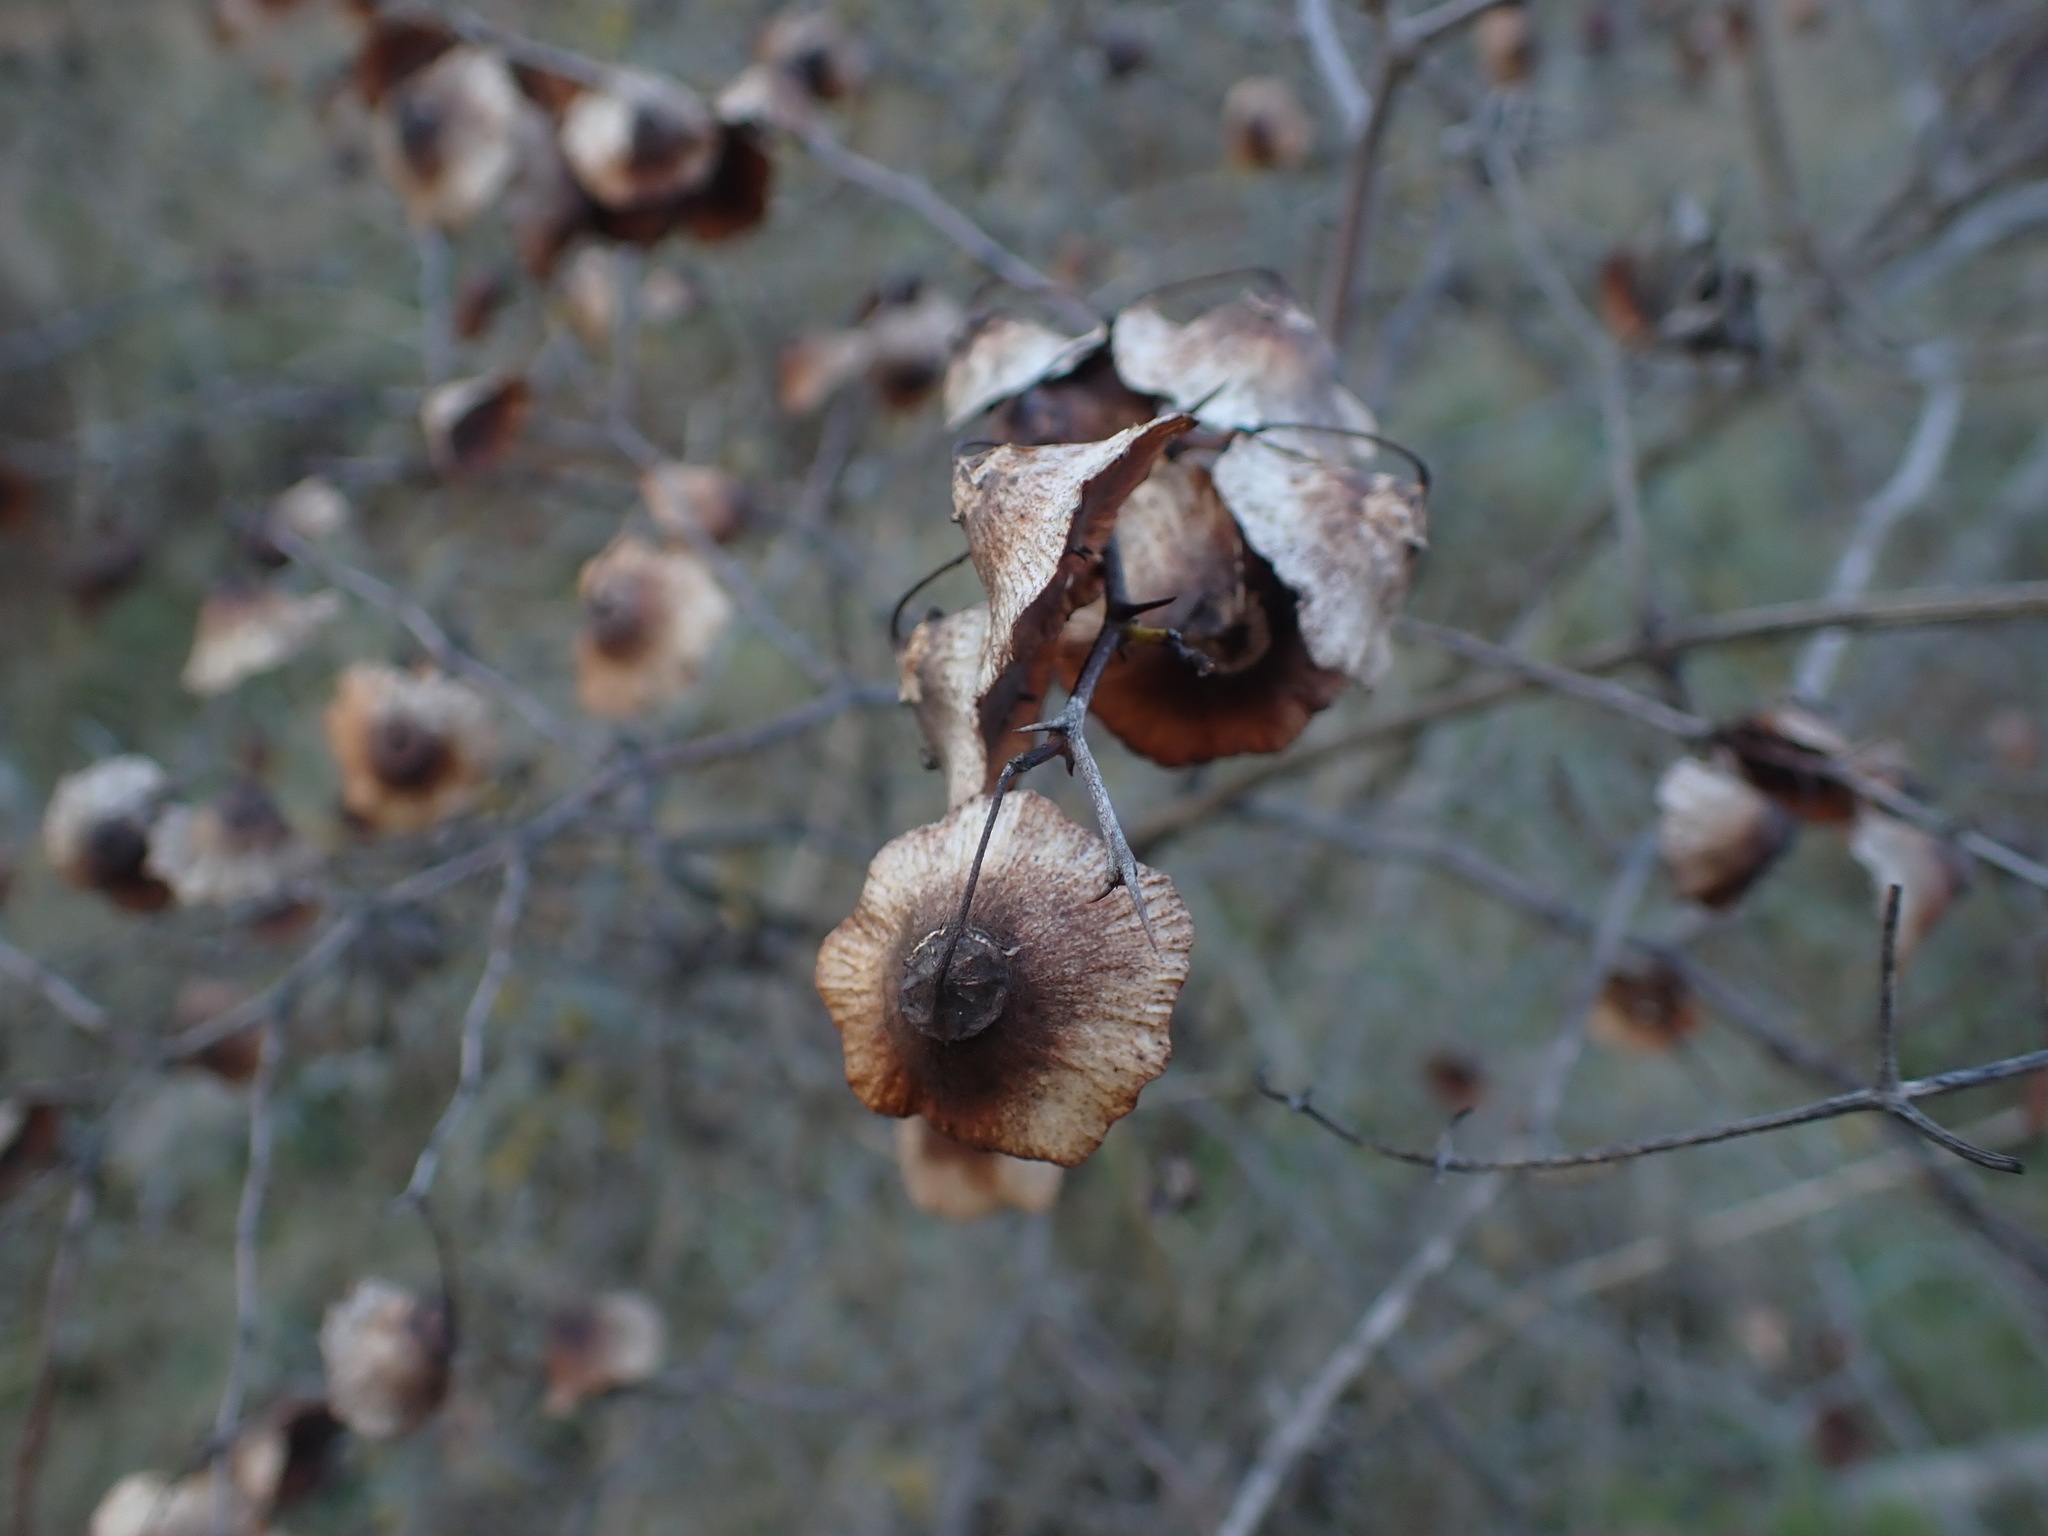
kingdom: Plantae
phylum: Tracheophyta
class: Magnoliopsida
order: Rosales
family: Rhamnaceae
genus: Paliurus
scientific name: Paliurus spina-christi
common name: Jeruselem thorn
